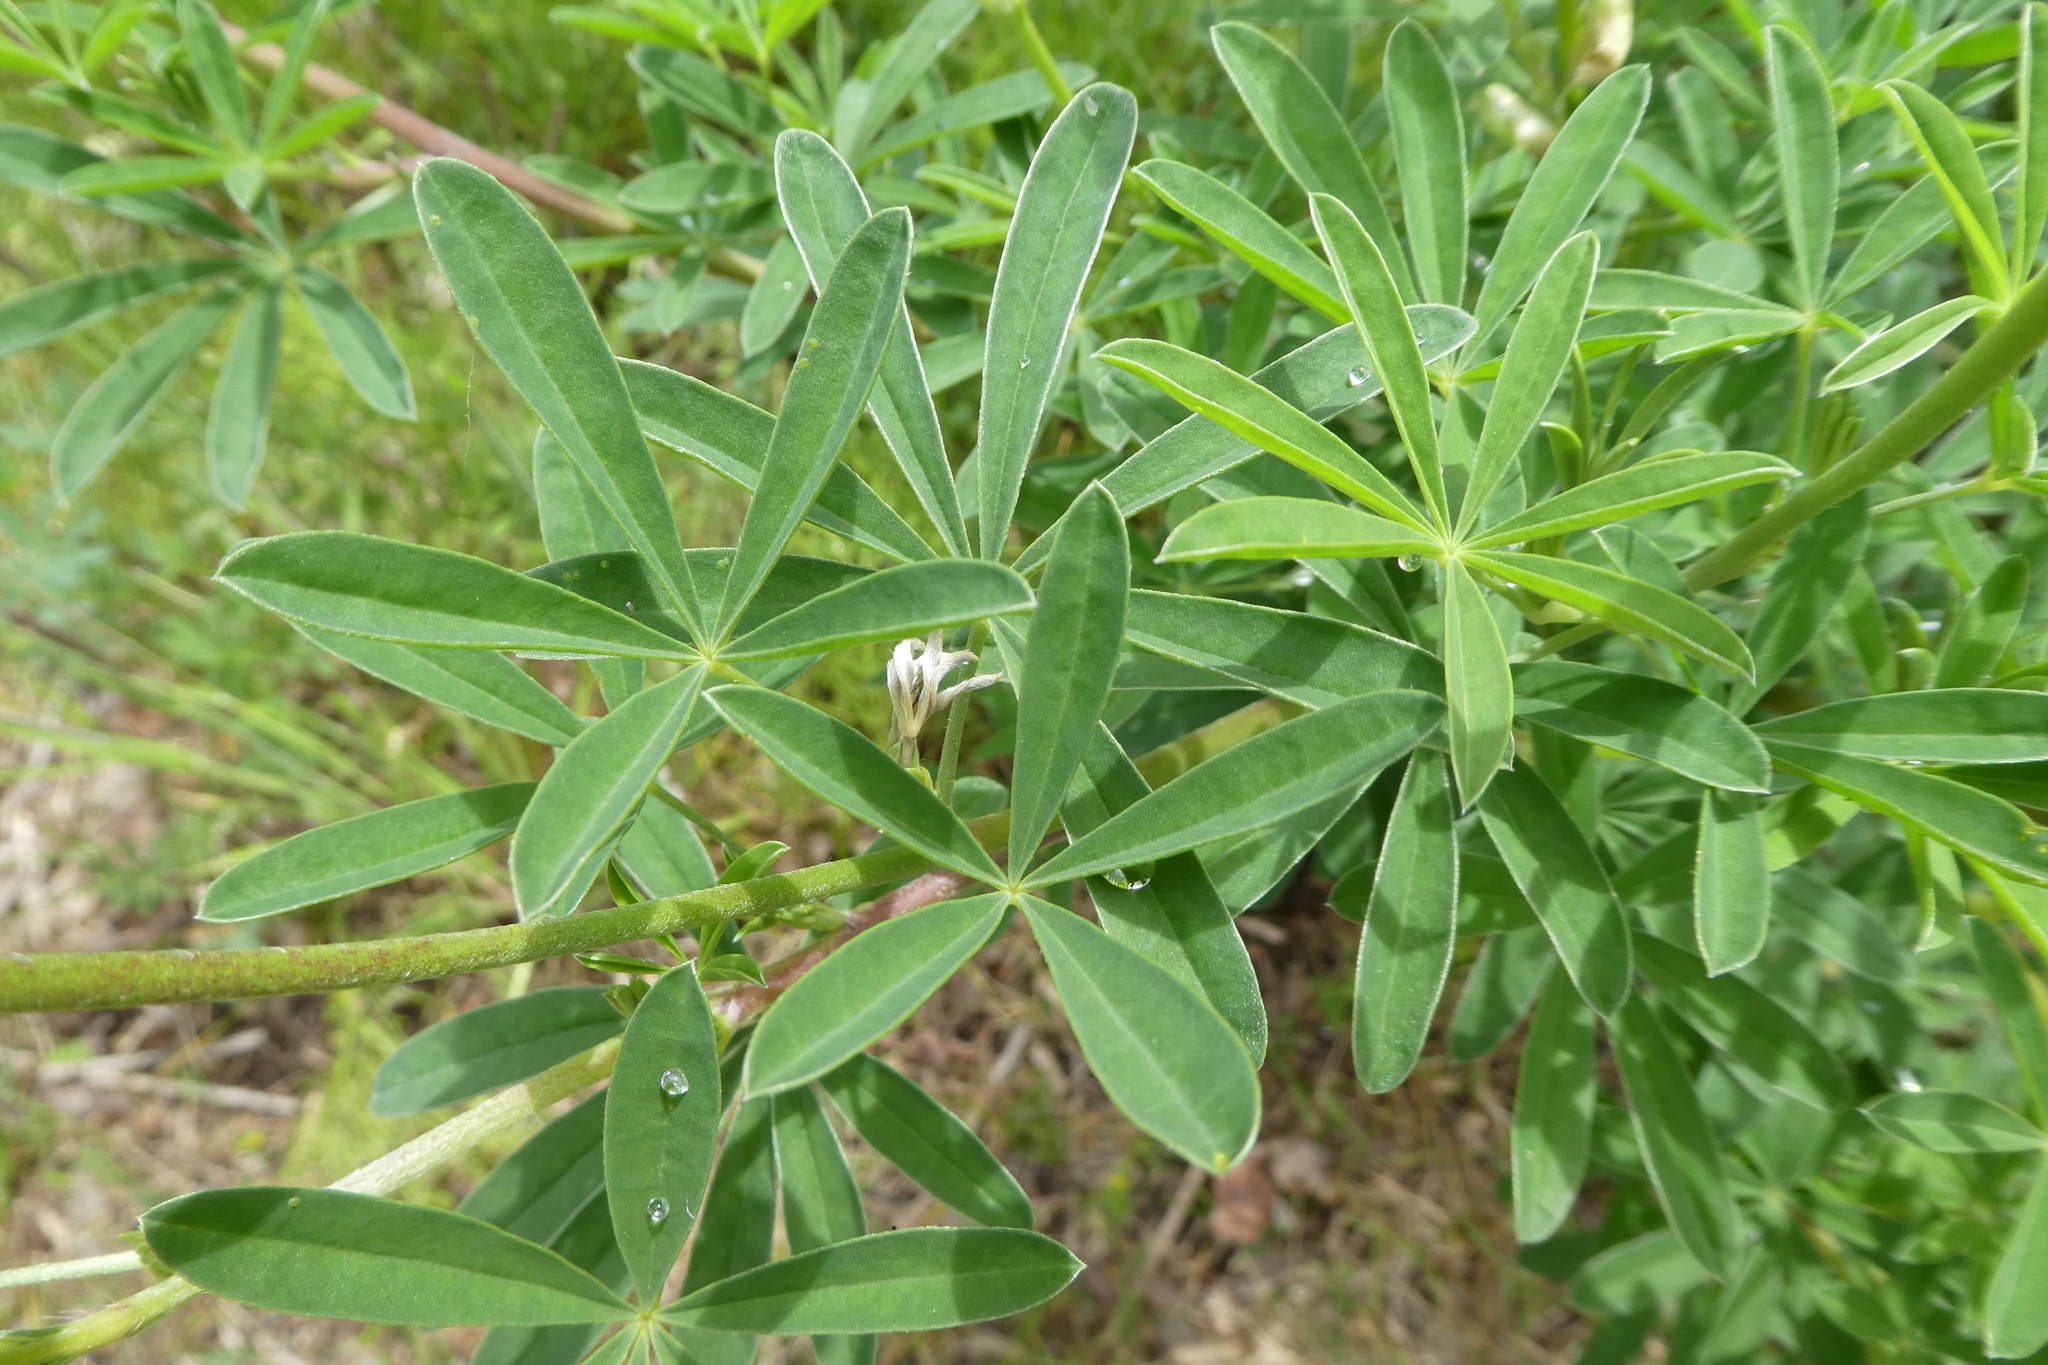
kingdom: Plantae
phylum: Tracheophyta
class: Magnoliopsida
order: Fabales
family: Fabaceae
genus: Lupinus
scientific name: Lupinus arboreus
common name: Yellow bush lupine
